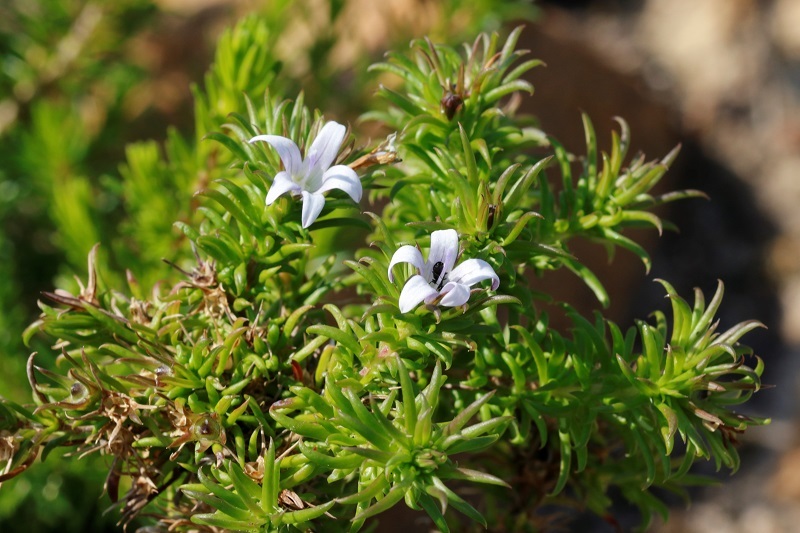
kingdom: Plantae
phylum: Tracheophyta
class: Magnoliopsida
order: Asterales
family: Campanulaceae
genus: Wahlenbergia
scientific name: Wahlenbergia thunbergii
